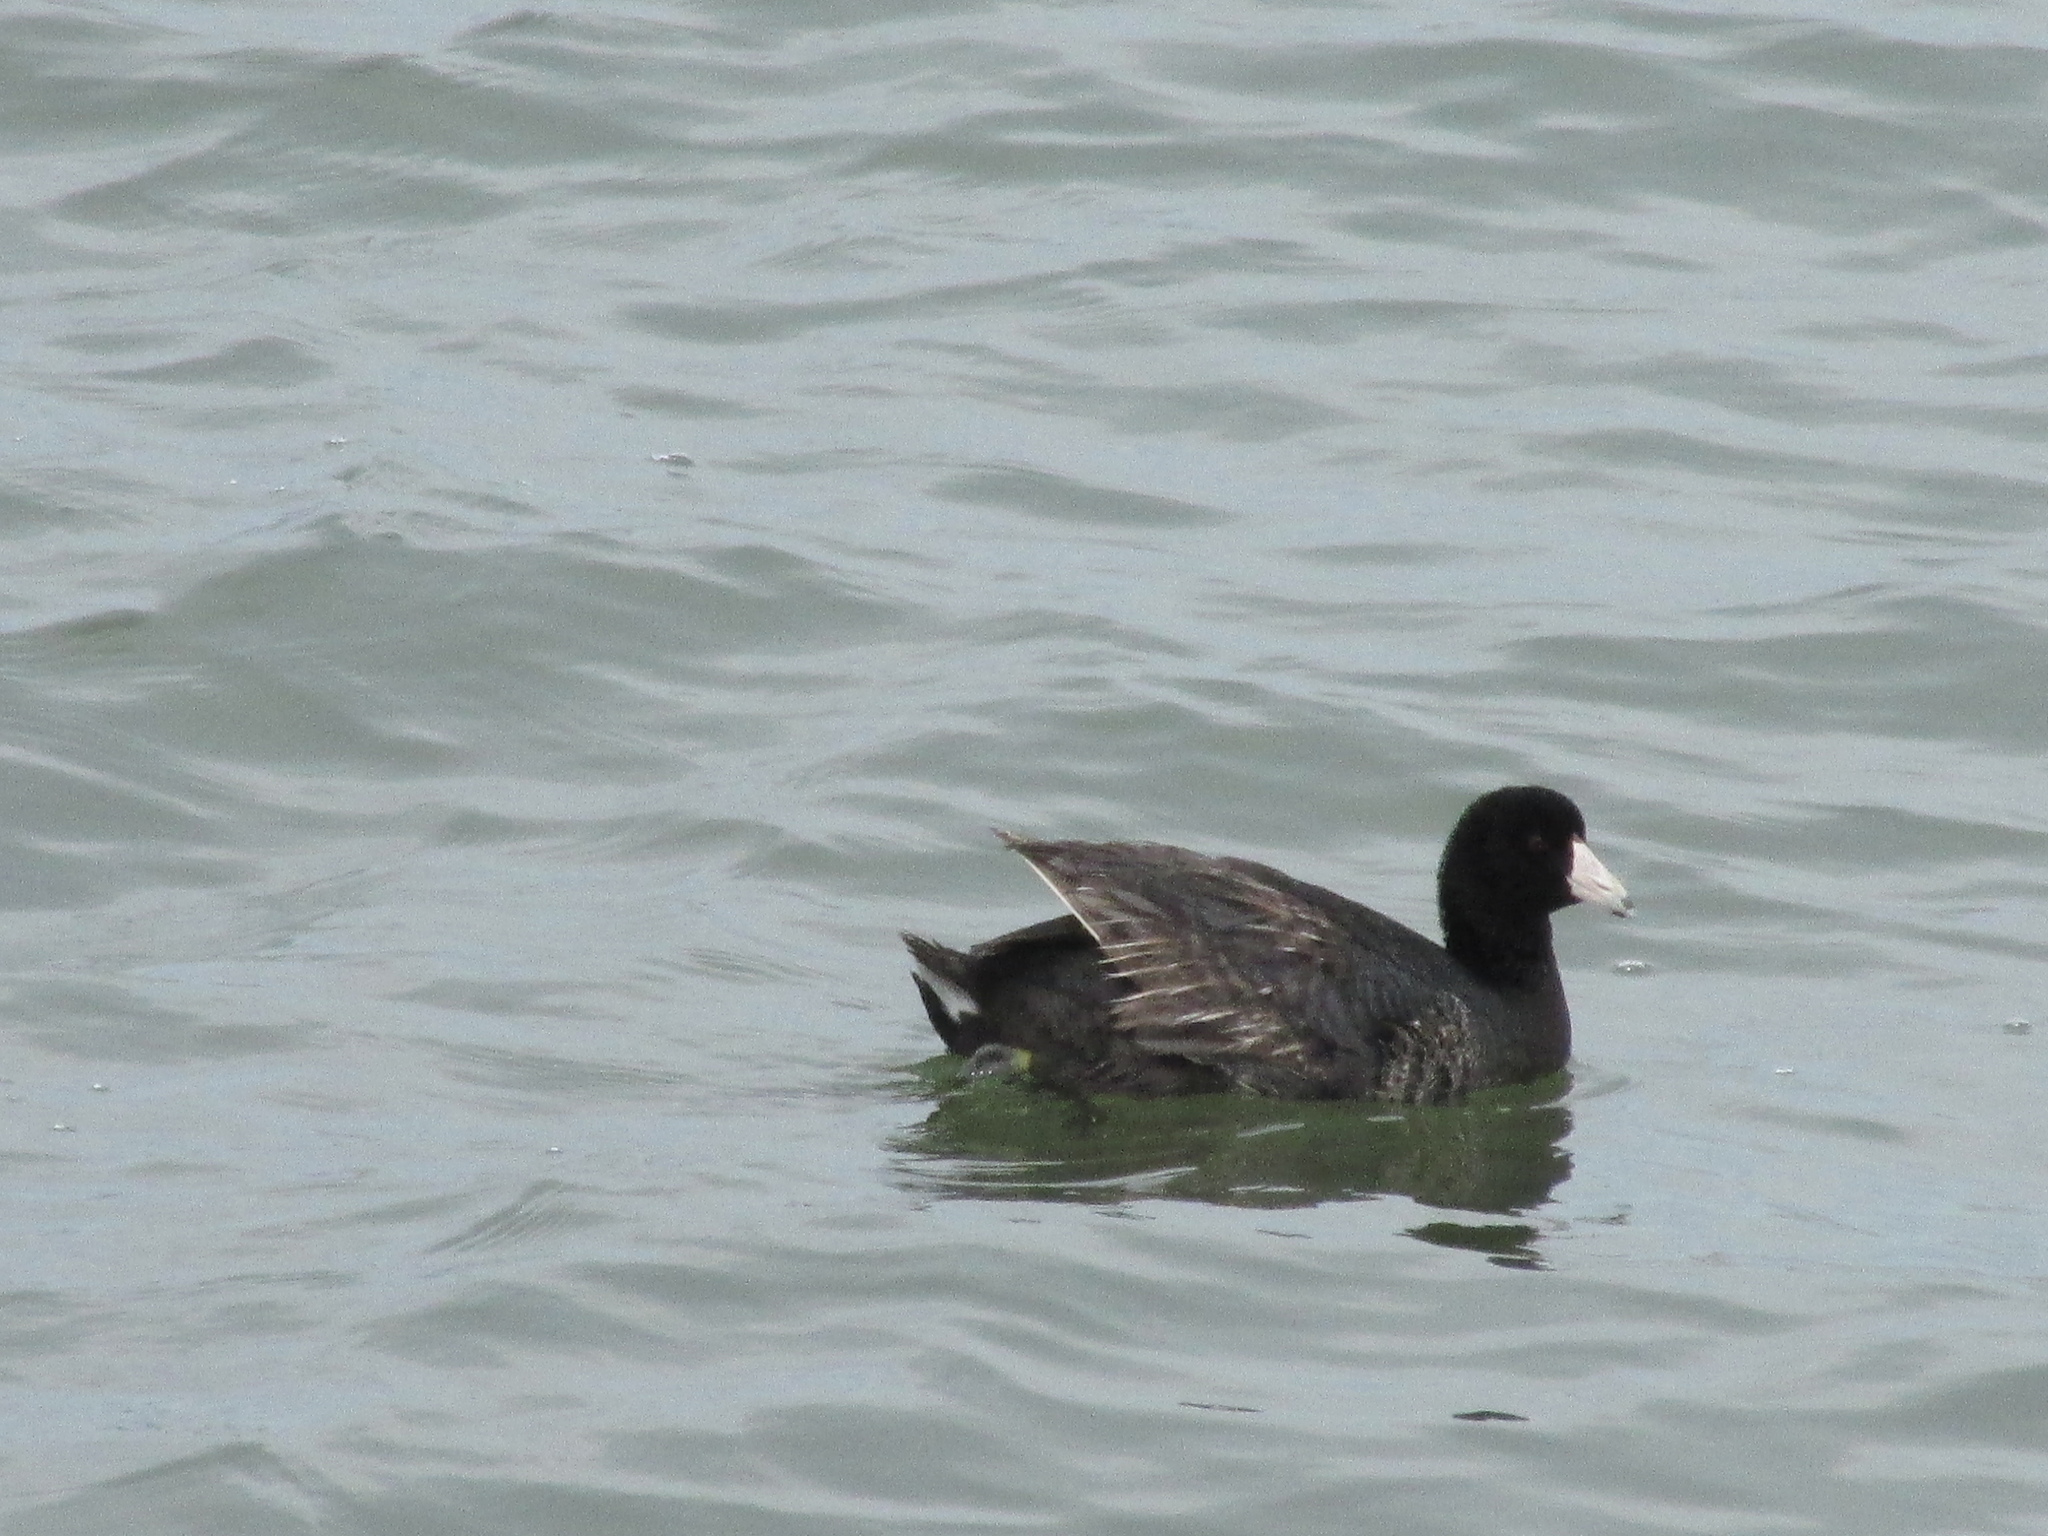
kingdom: Animalia
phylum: Chordata
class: Aves
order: Gruiformes
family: Rallidae
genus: Fulica
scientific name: Fulica americana
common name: American coot
